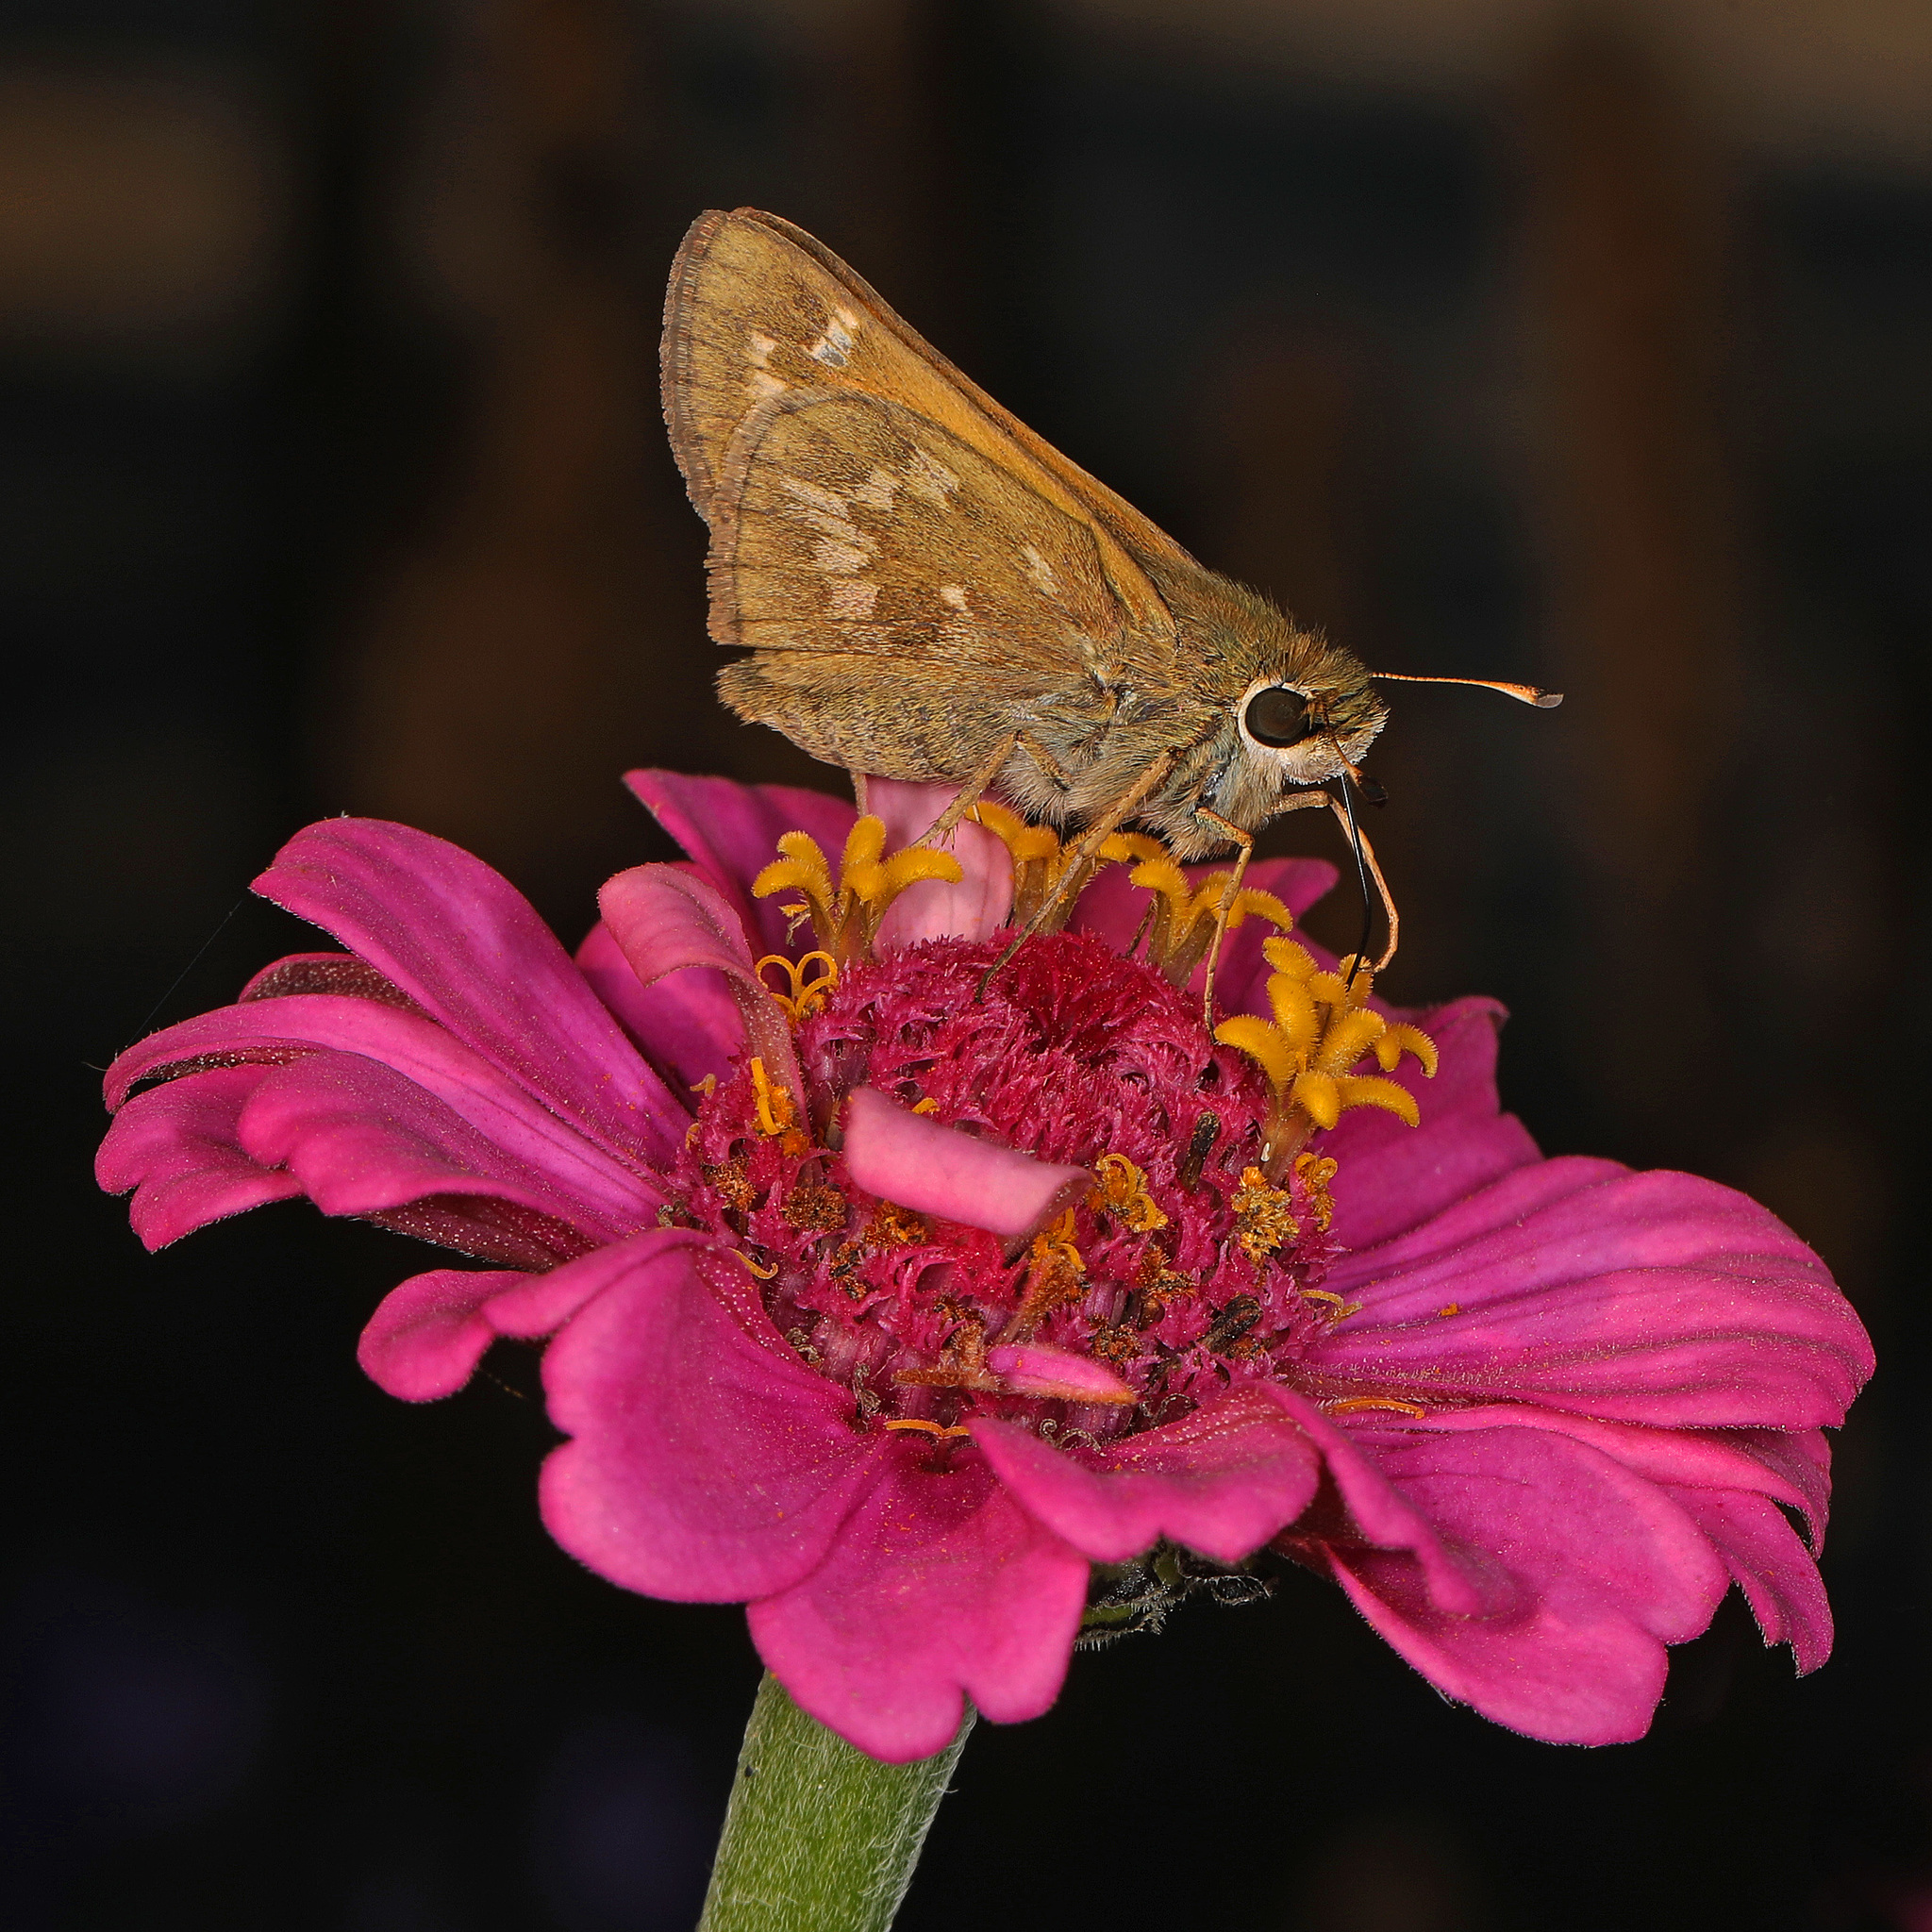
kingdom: Animalia
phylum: Arthropoda
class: Insecta
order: Lepidoptera
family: Hesperiidae
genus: Atalopedes
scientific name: Atalopedes
